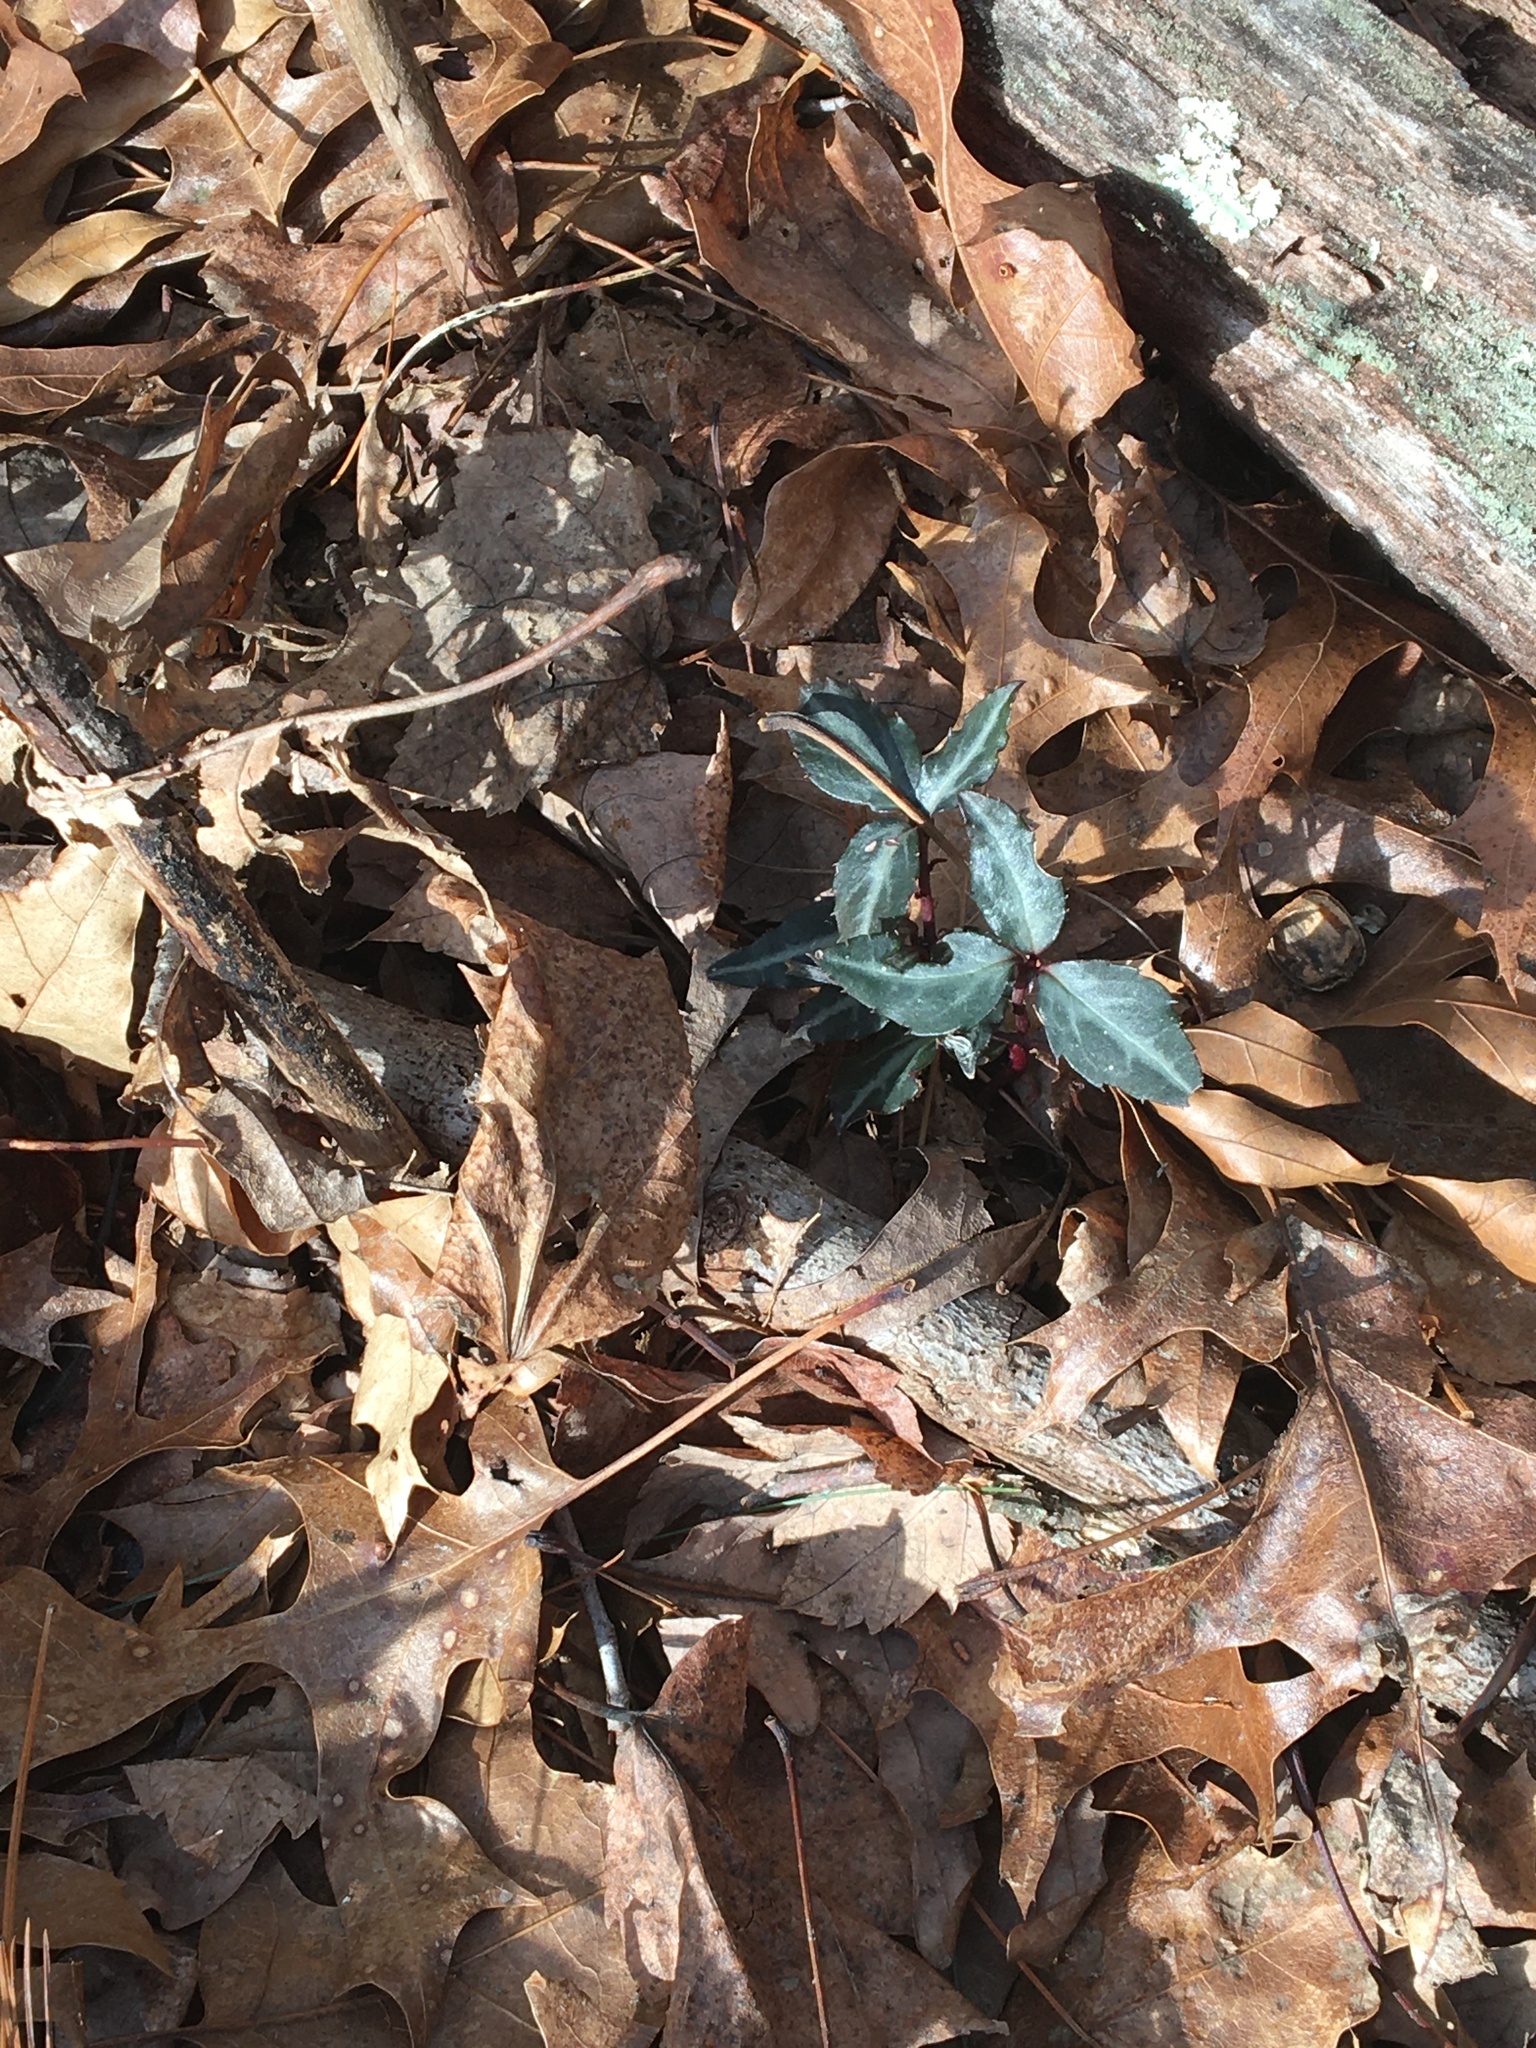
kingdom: Plantae
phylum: Tracheophyta
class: Magnoliopsida
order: Ericales
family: Ericaceae
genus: Chimaphila
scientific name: Chimaphila maculata
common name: Spotted pipsissewa
